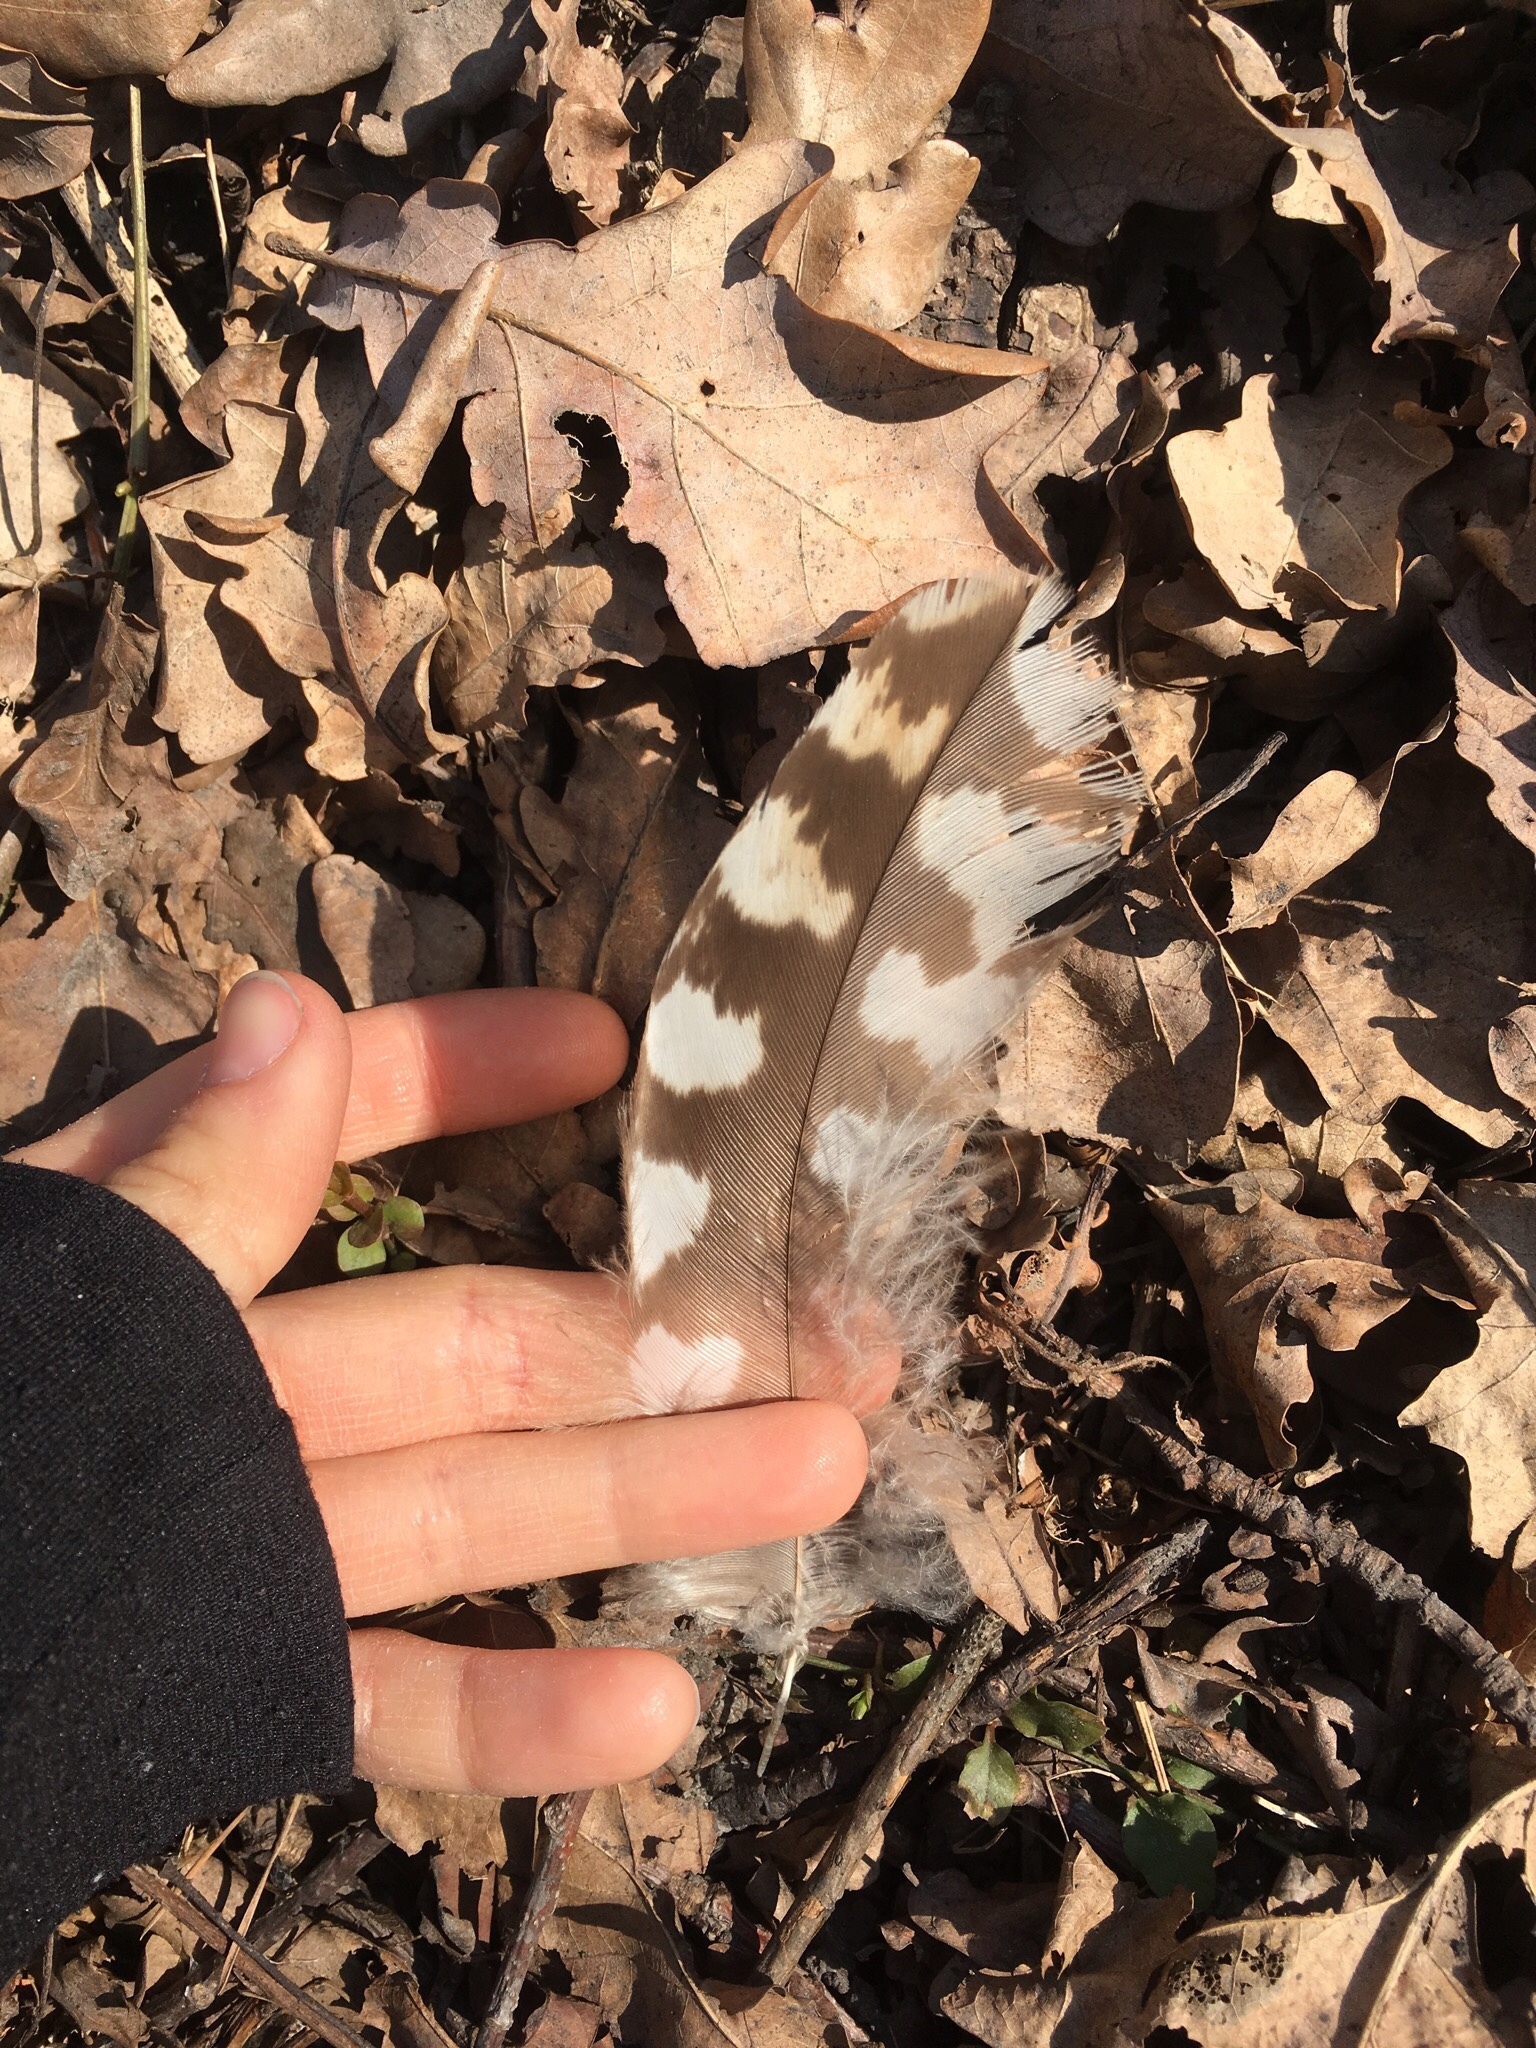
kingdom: Animalia
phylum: Chordata
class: Aves
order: Accipitriformes
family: Accipitridae
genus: Buteo
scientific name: Buteo buteo
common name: Common buzzard
